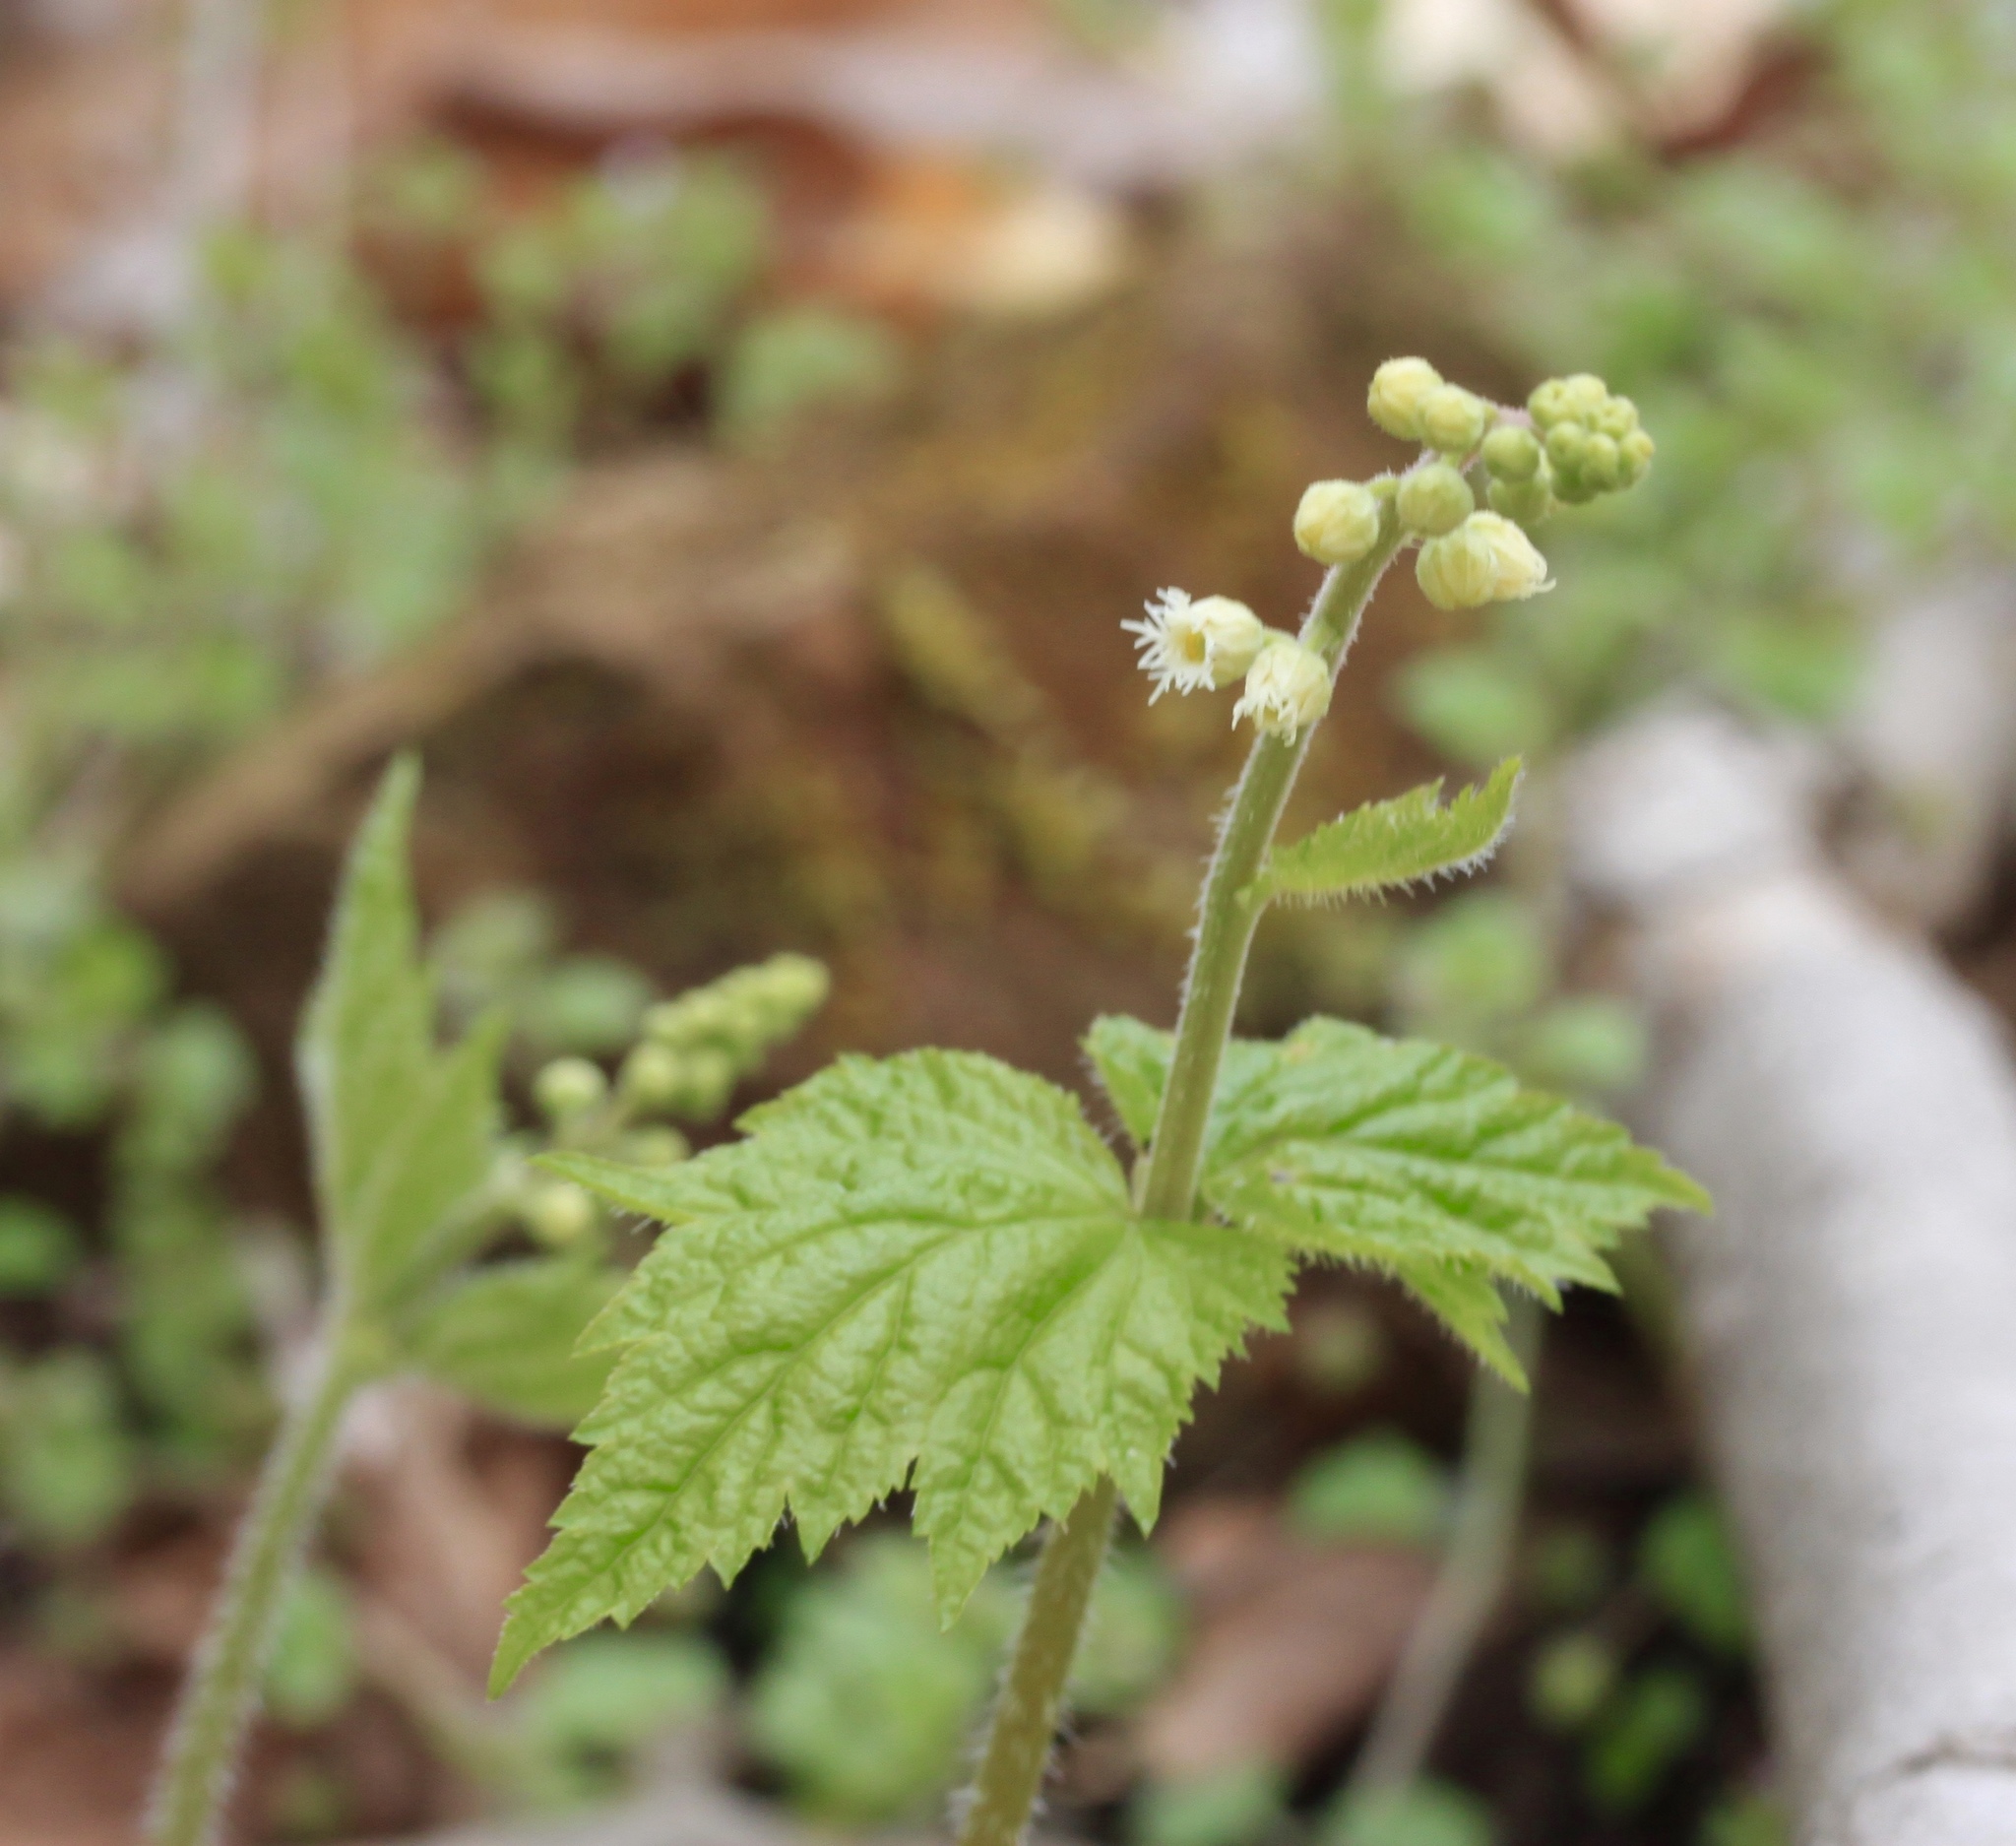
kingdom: Plantae
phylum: Tracheophyta
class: Magnoliopsida
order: Saxifragales
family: Saxifragaceae
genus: Mitella
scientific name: Mitella diphylla
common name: Coolwort
